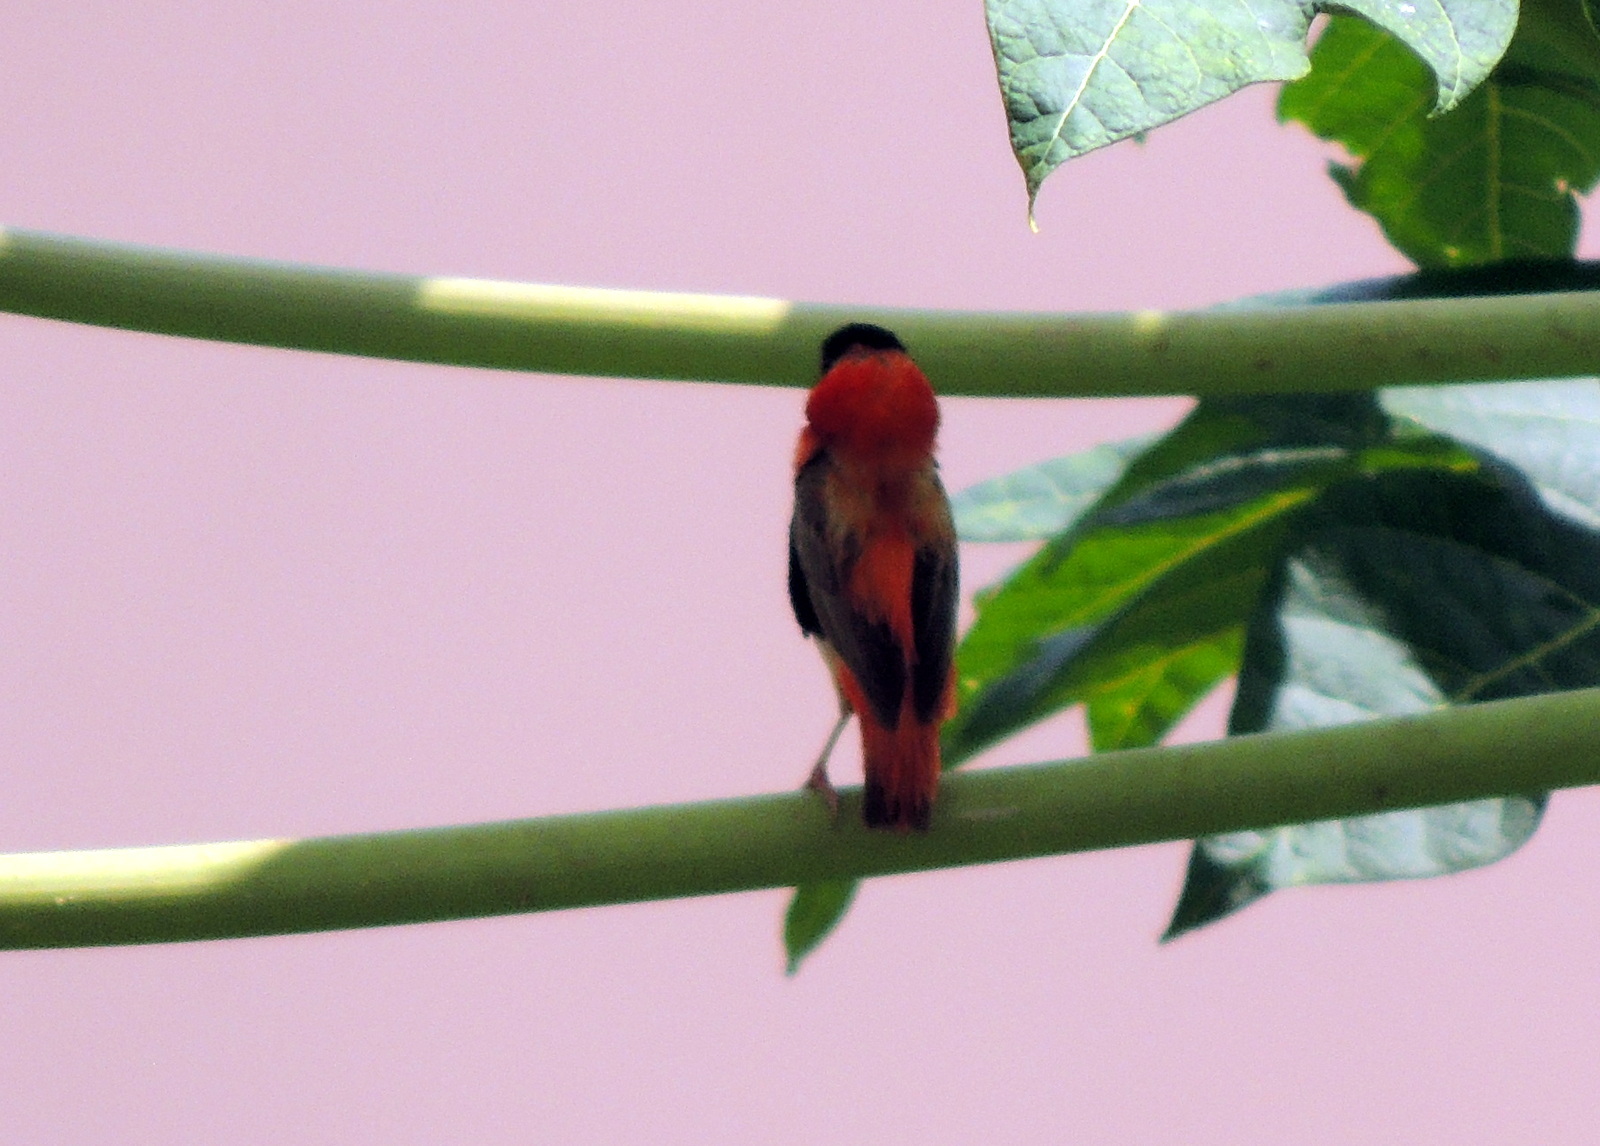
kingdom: Animalia
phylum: Chordata
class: Aves
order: Passeriformes
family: Ploceidae
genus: Euplectes
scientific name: Euplectes franciscanus
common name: Northern red bishop
